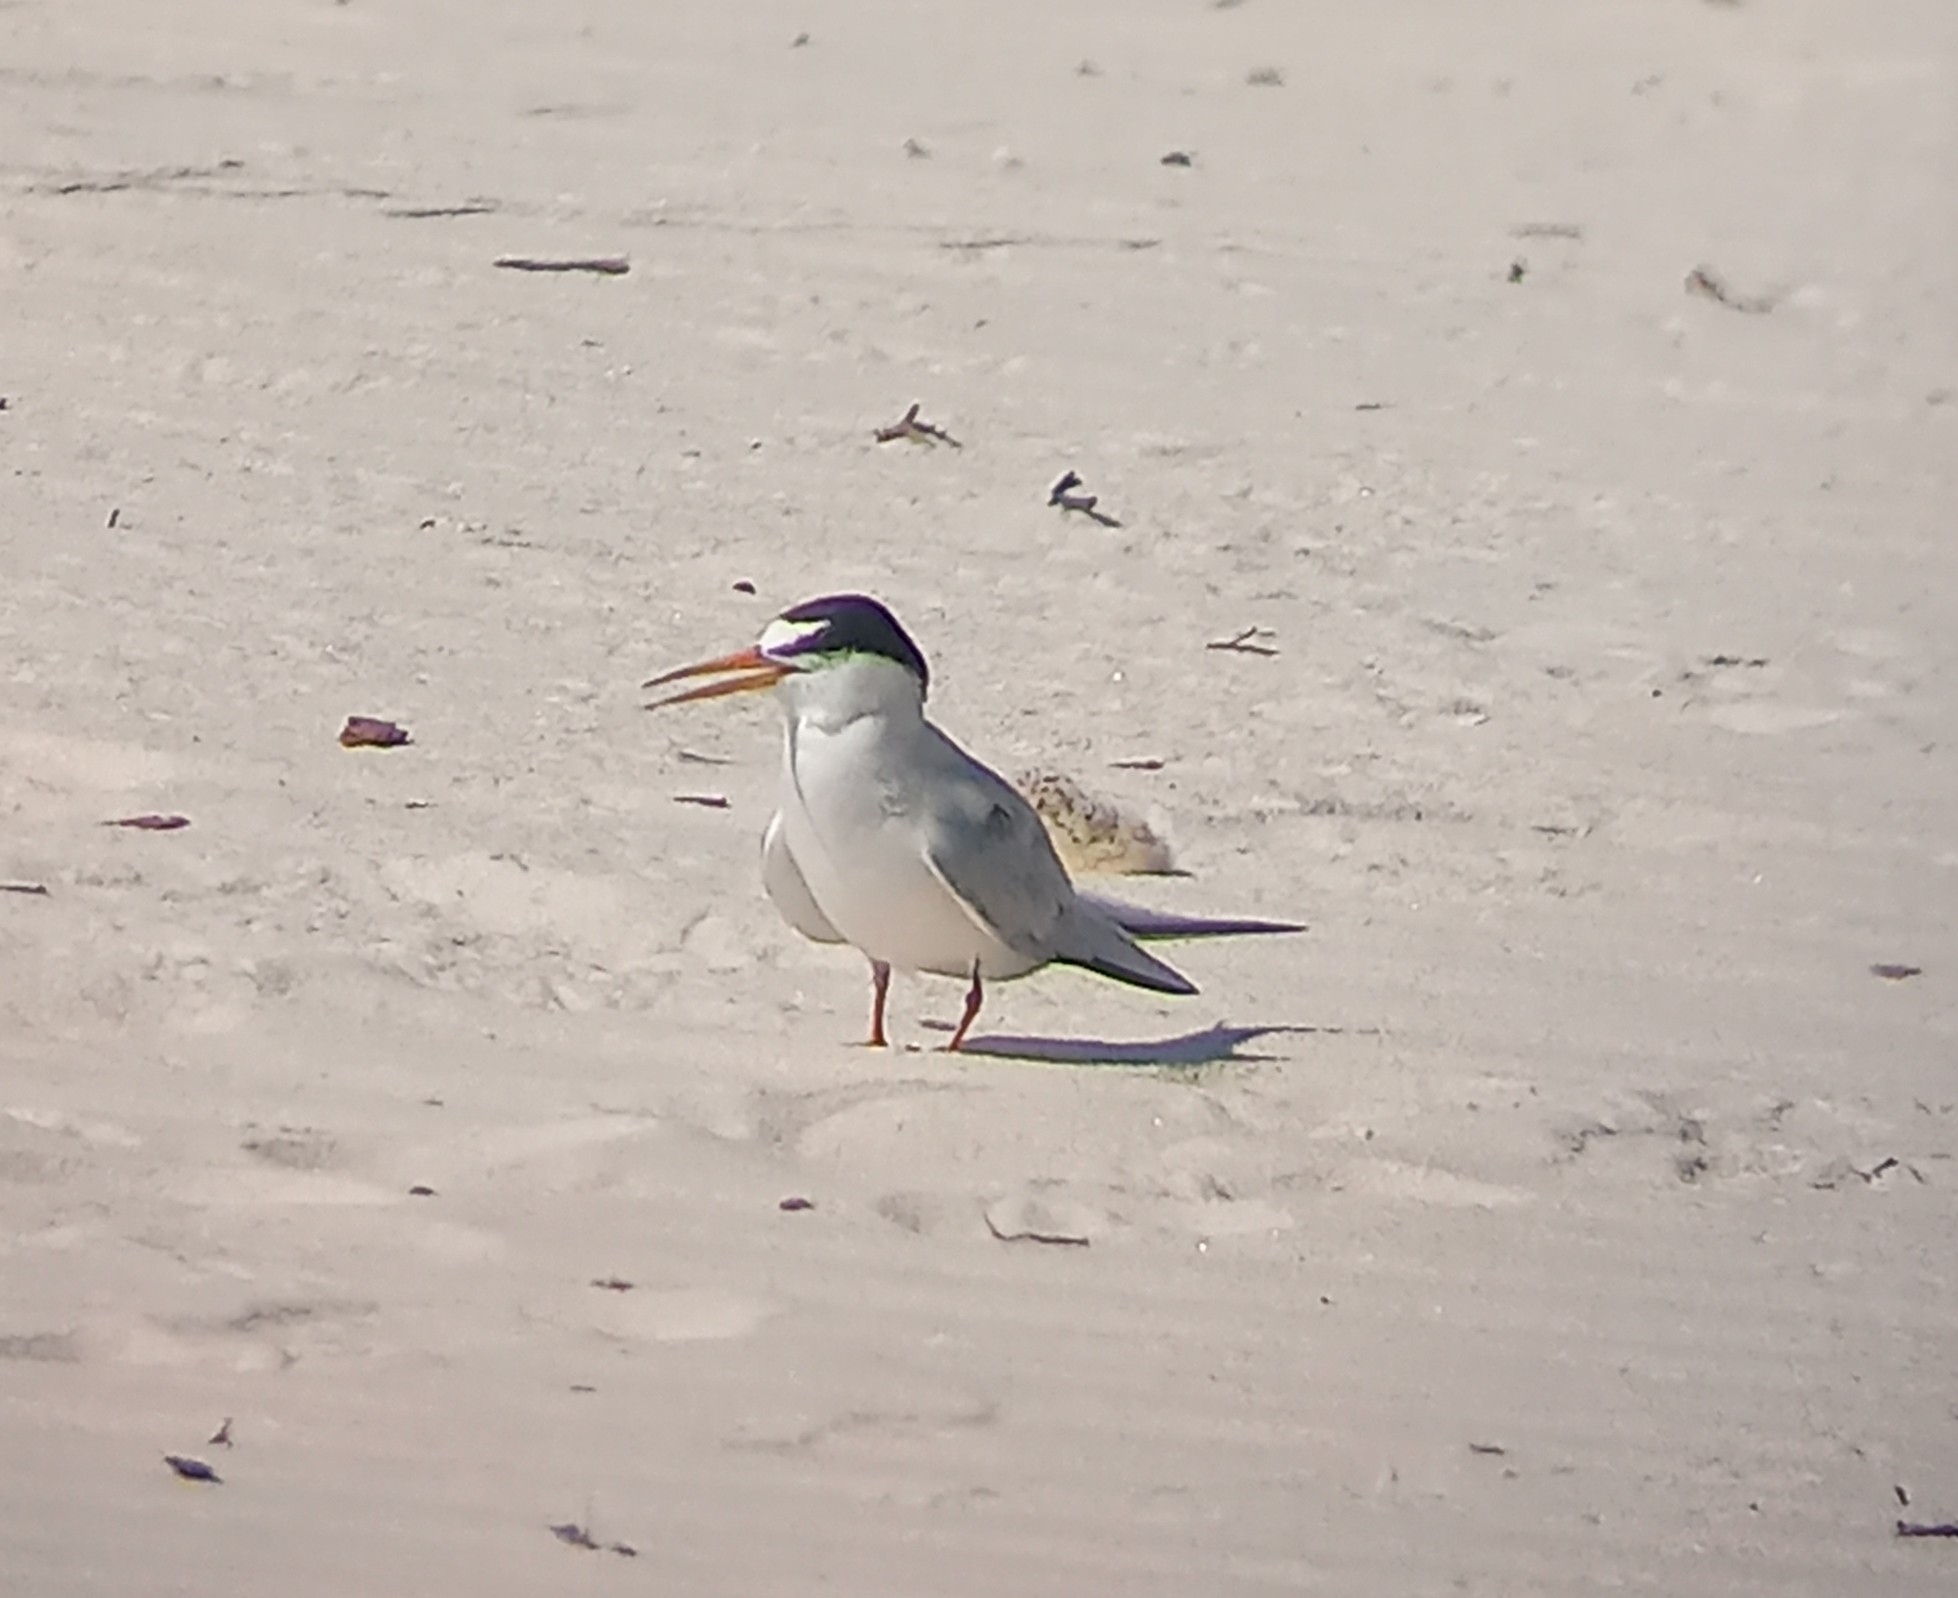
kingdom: Animalia
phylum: Chordata
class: Aves
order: Charadriiformes
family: Laridae
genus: Sternula
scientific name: Sternula antillarum
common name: Least tern
